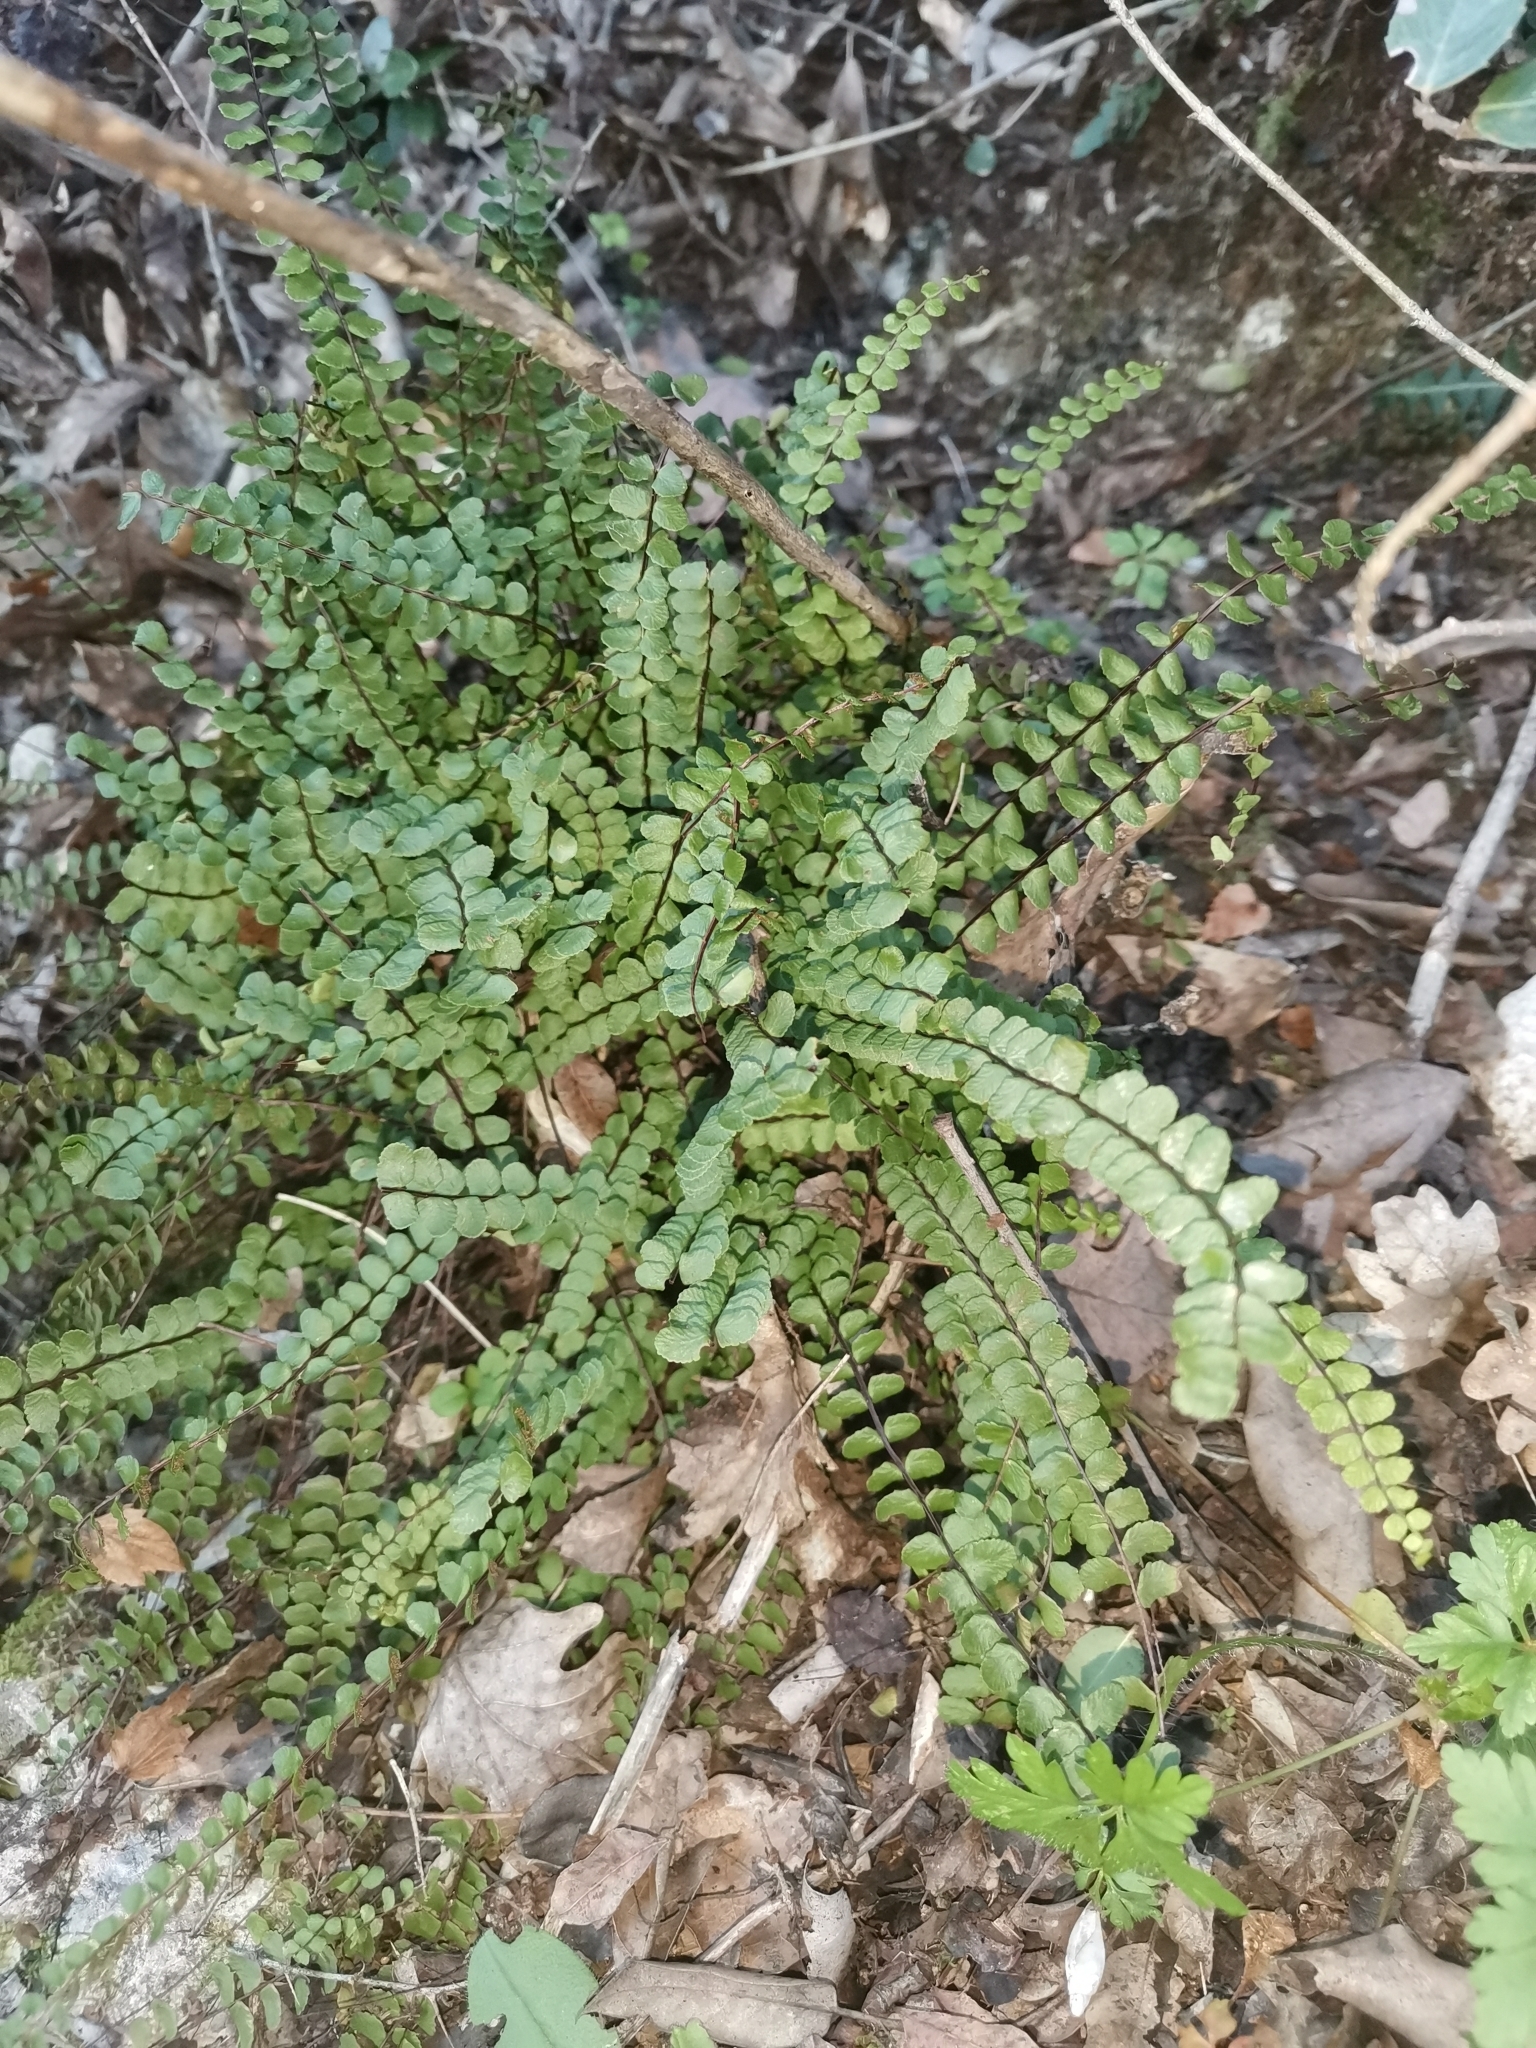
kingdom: Plantae
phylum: Tracheophyta
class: Polypodiopsida
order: Polypodiales
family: Aspleniaceae
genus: Asplenium
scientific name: Asplenium trichomanes
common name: Maidenhair spleenwort
